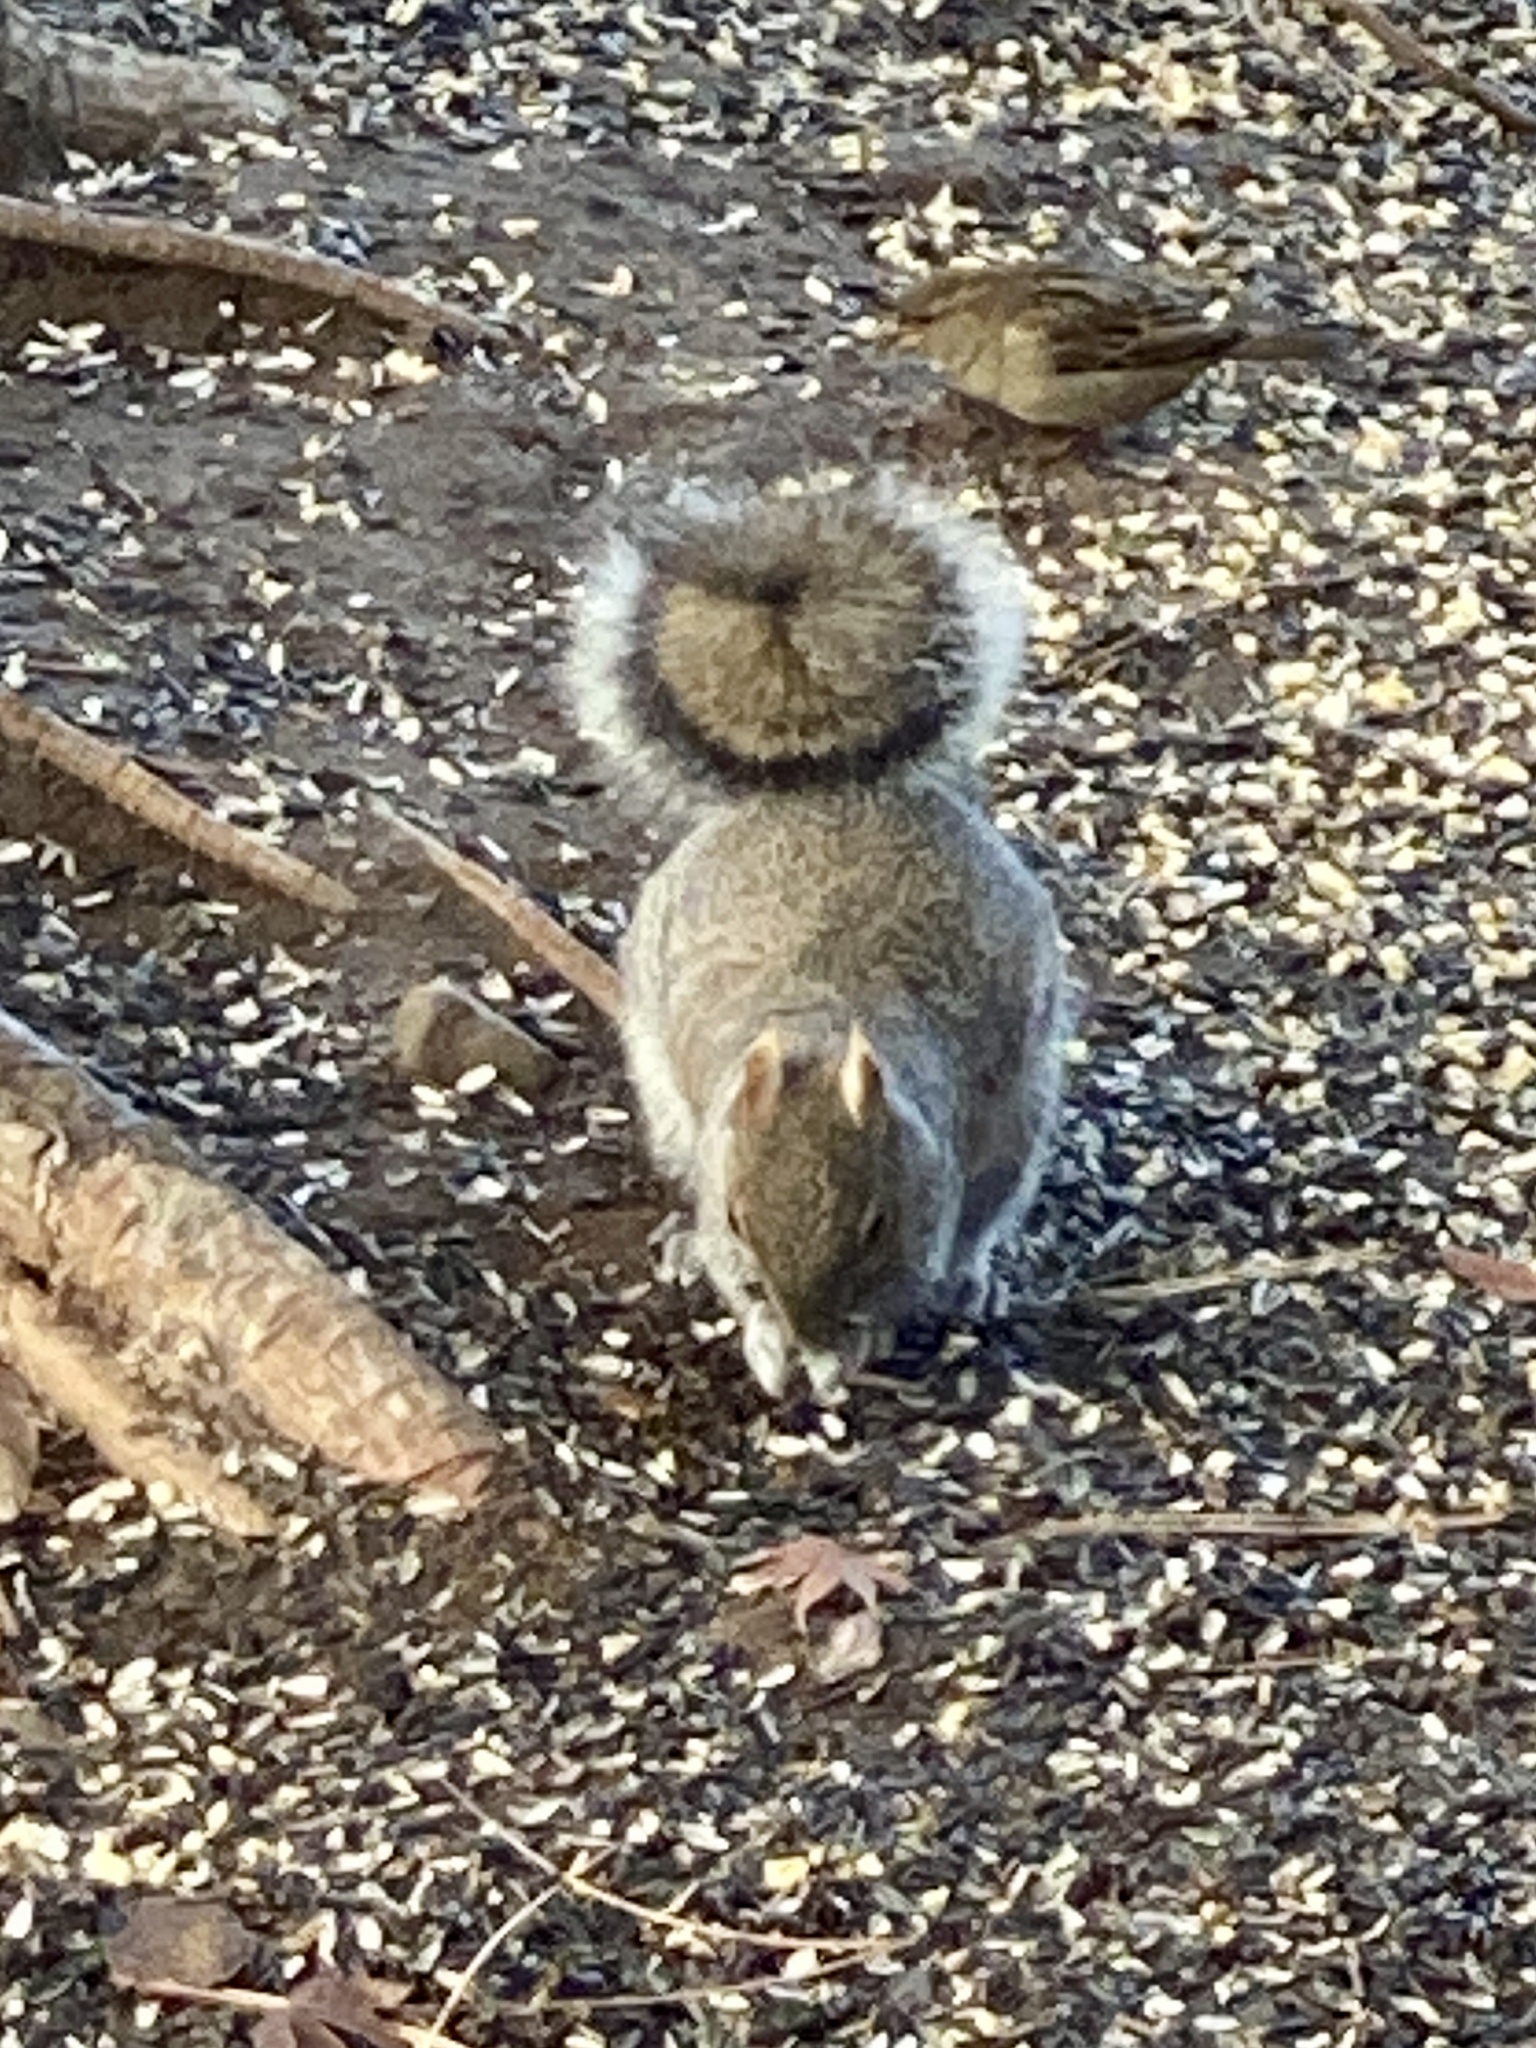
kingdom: Animalia
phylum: Chordata
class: Mammalia
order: Rodentia
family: Sciuridae
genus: Sciurus
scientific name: Sciurus carolinensis
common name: Eastern gray squirrel
